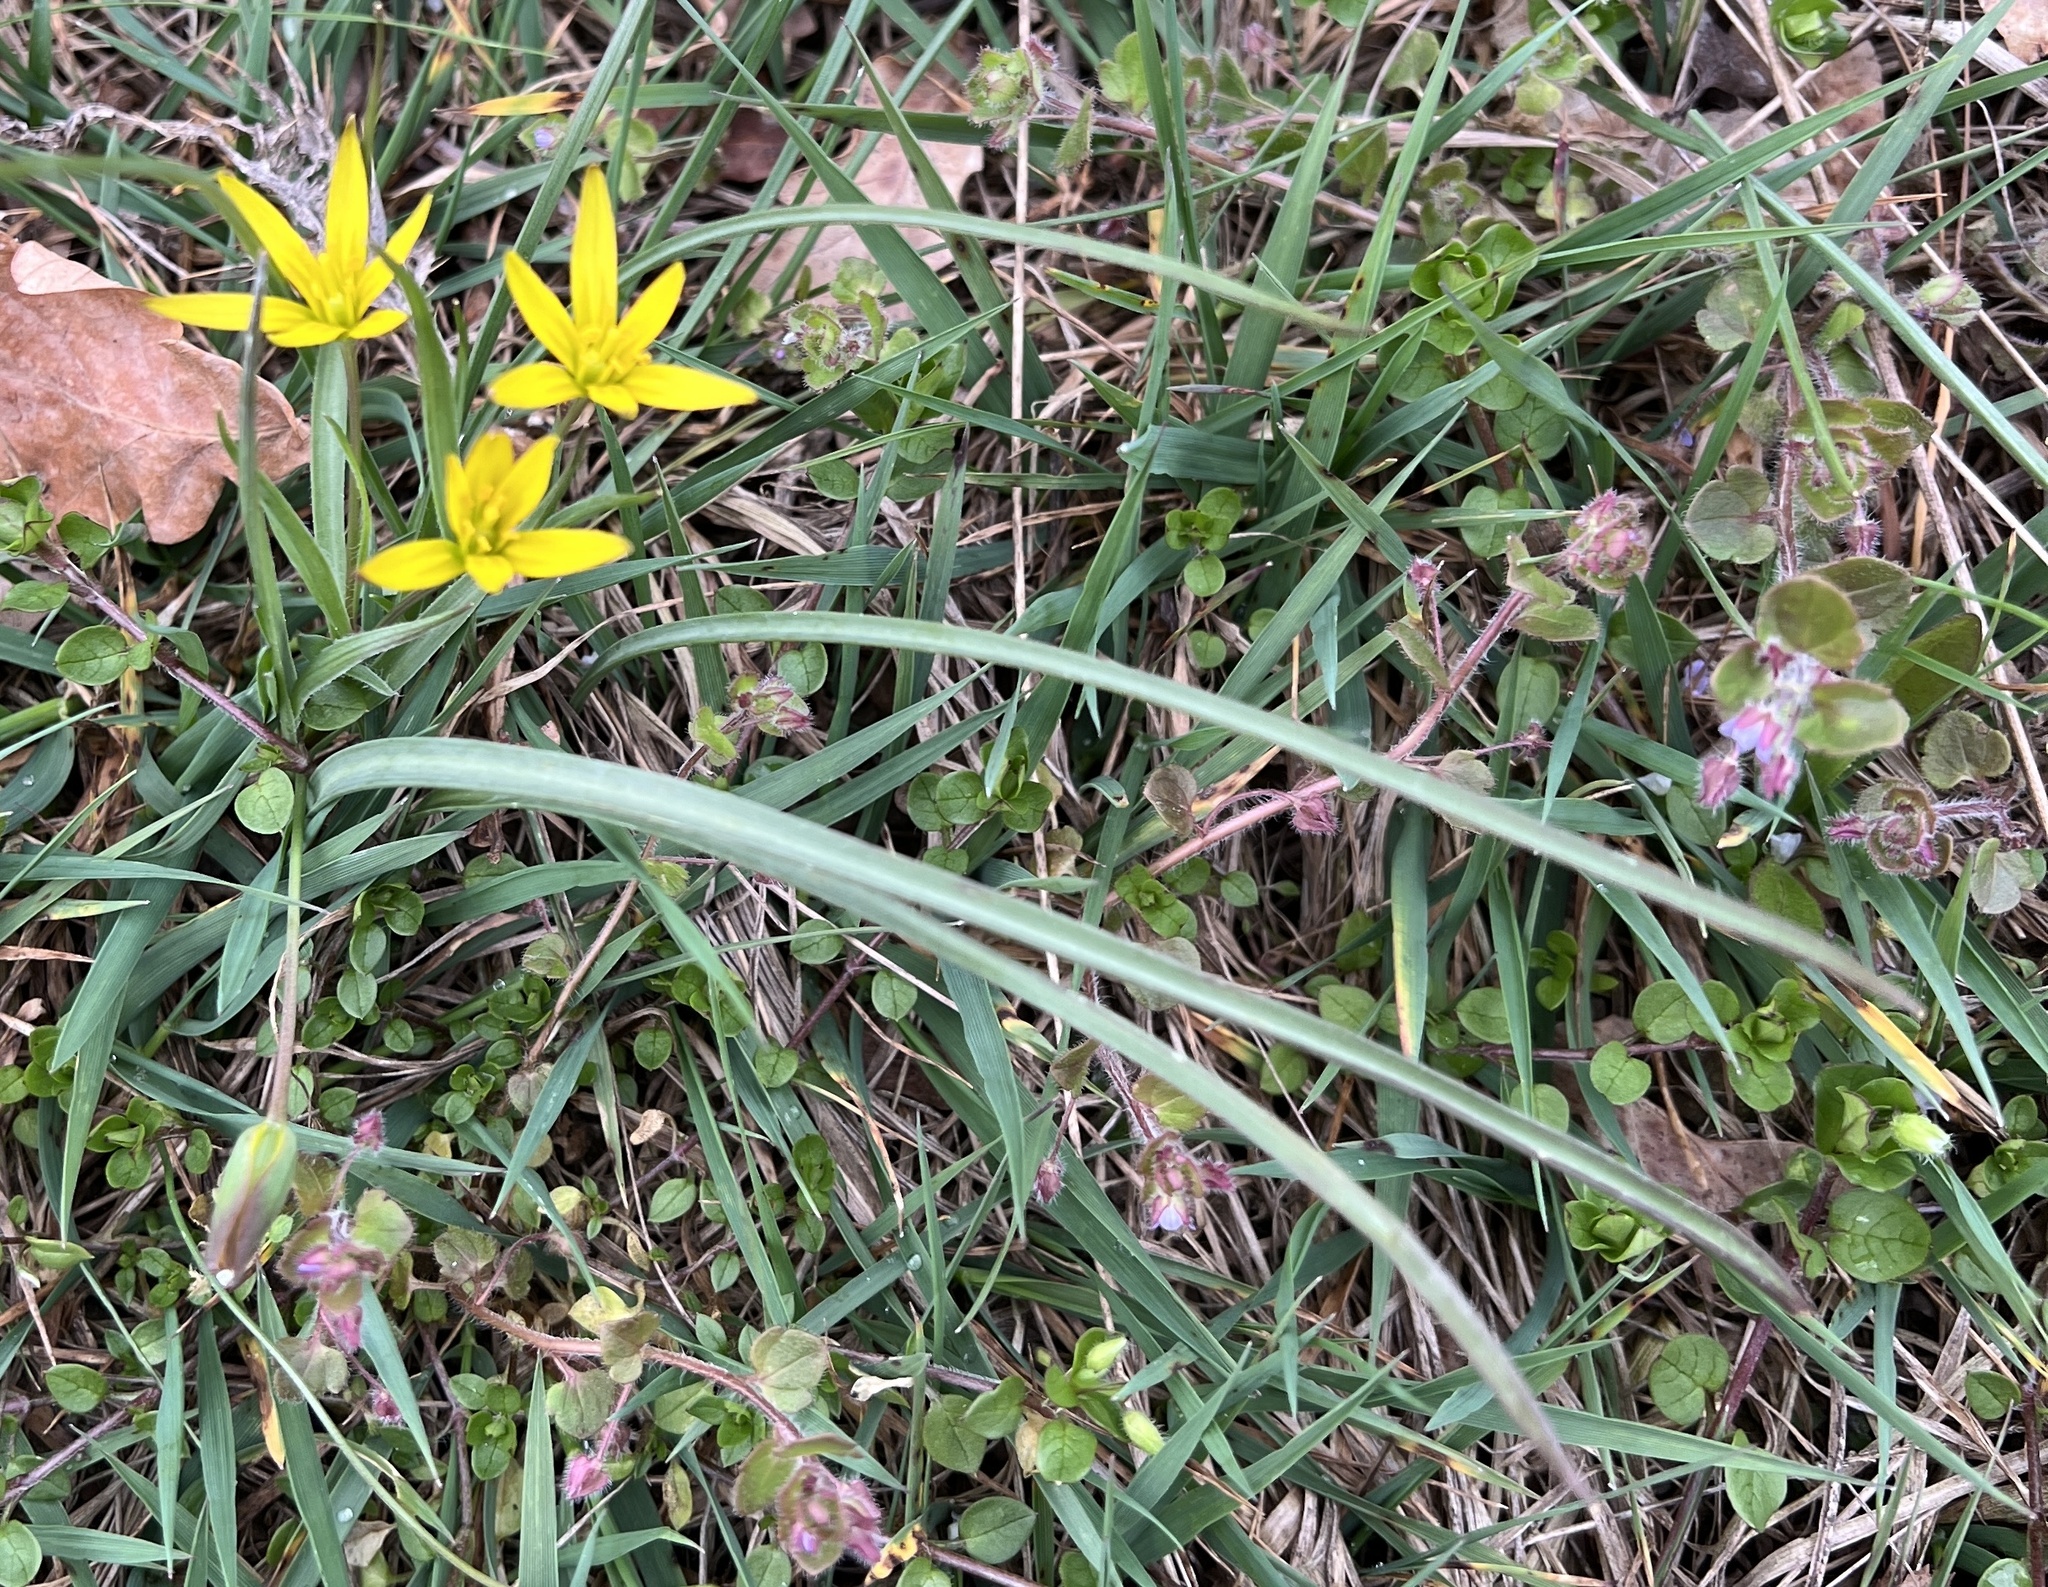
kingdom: Plantae
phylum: Tracheophyta
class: Liliopsida
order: Liliales
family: Liliaceae
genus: Gagea
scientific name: Gagea pratensis
